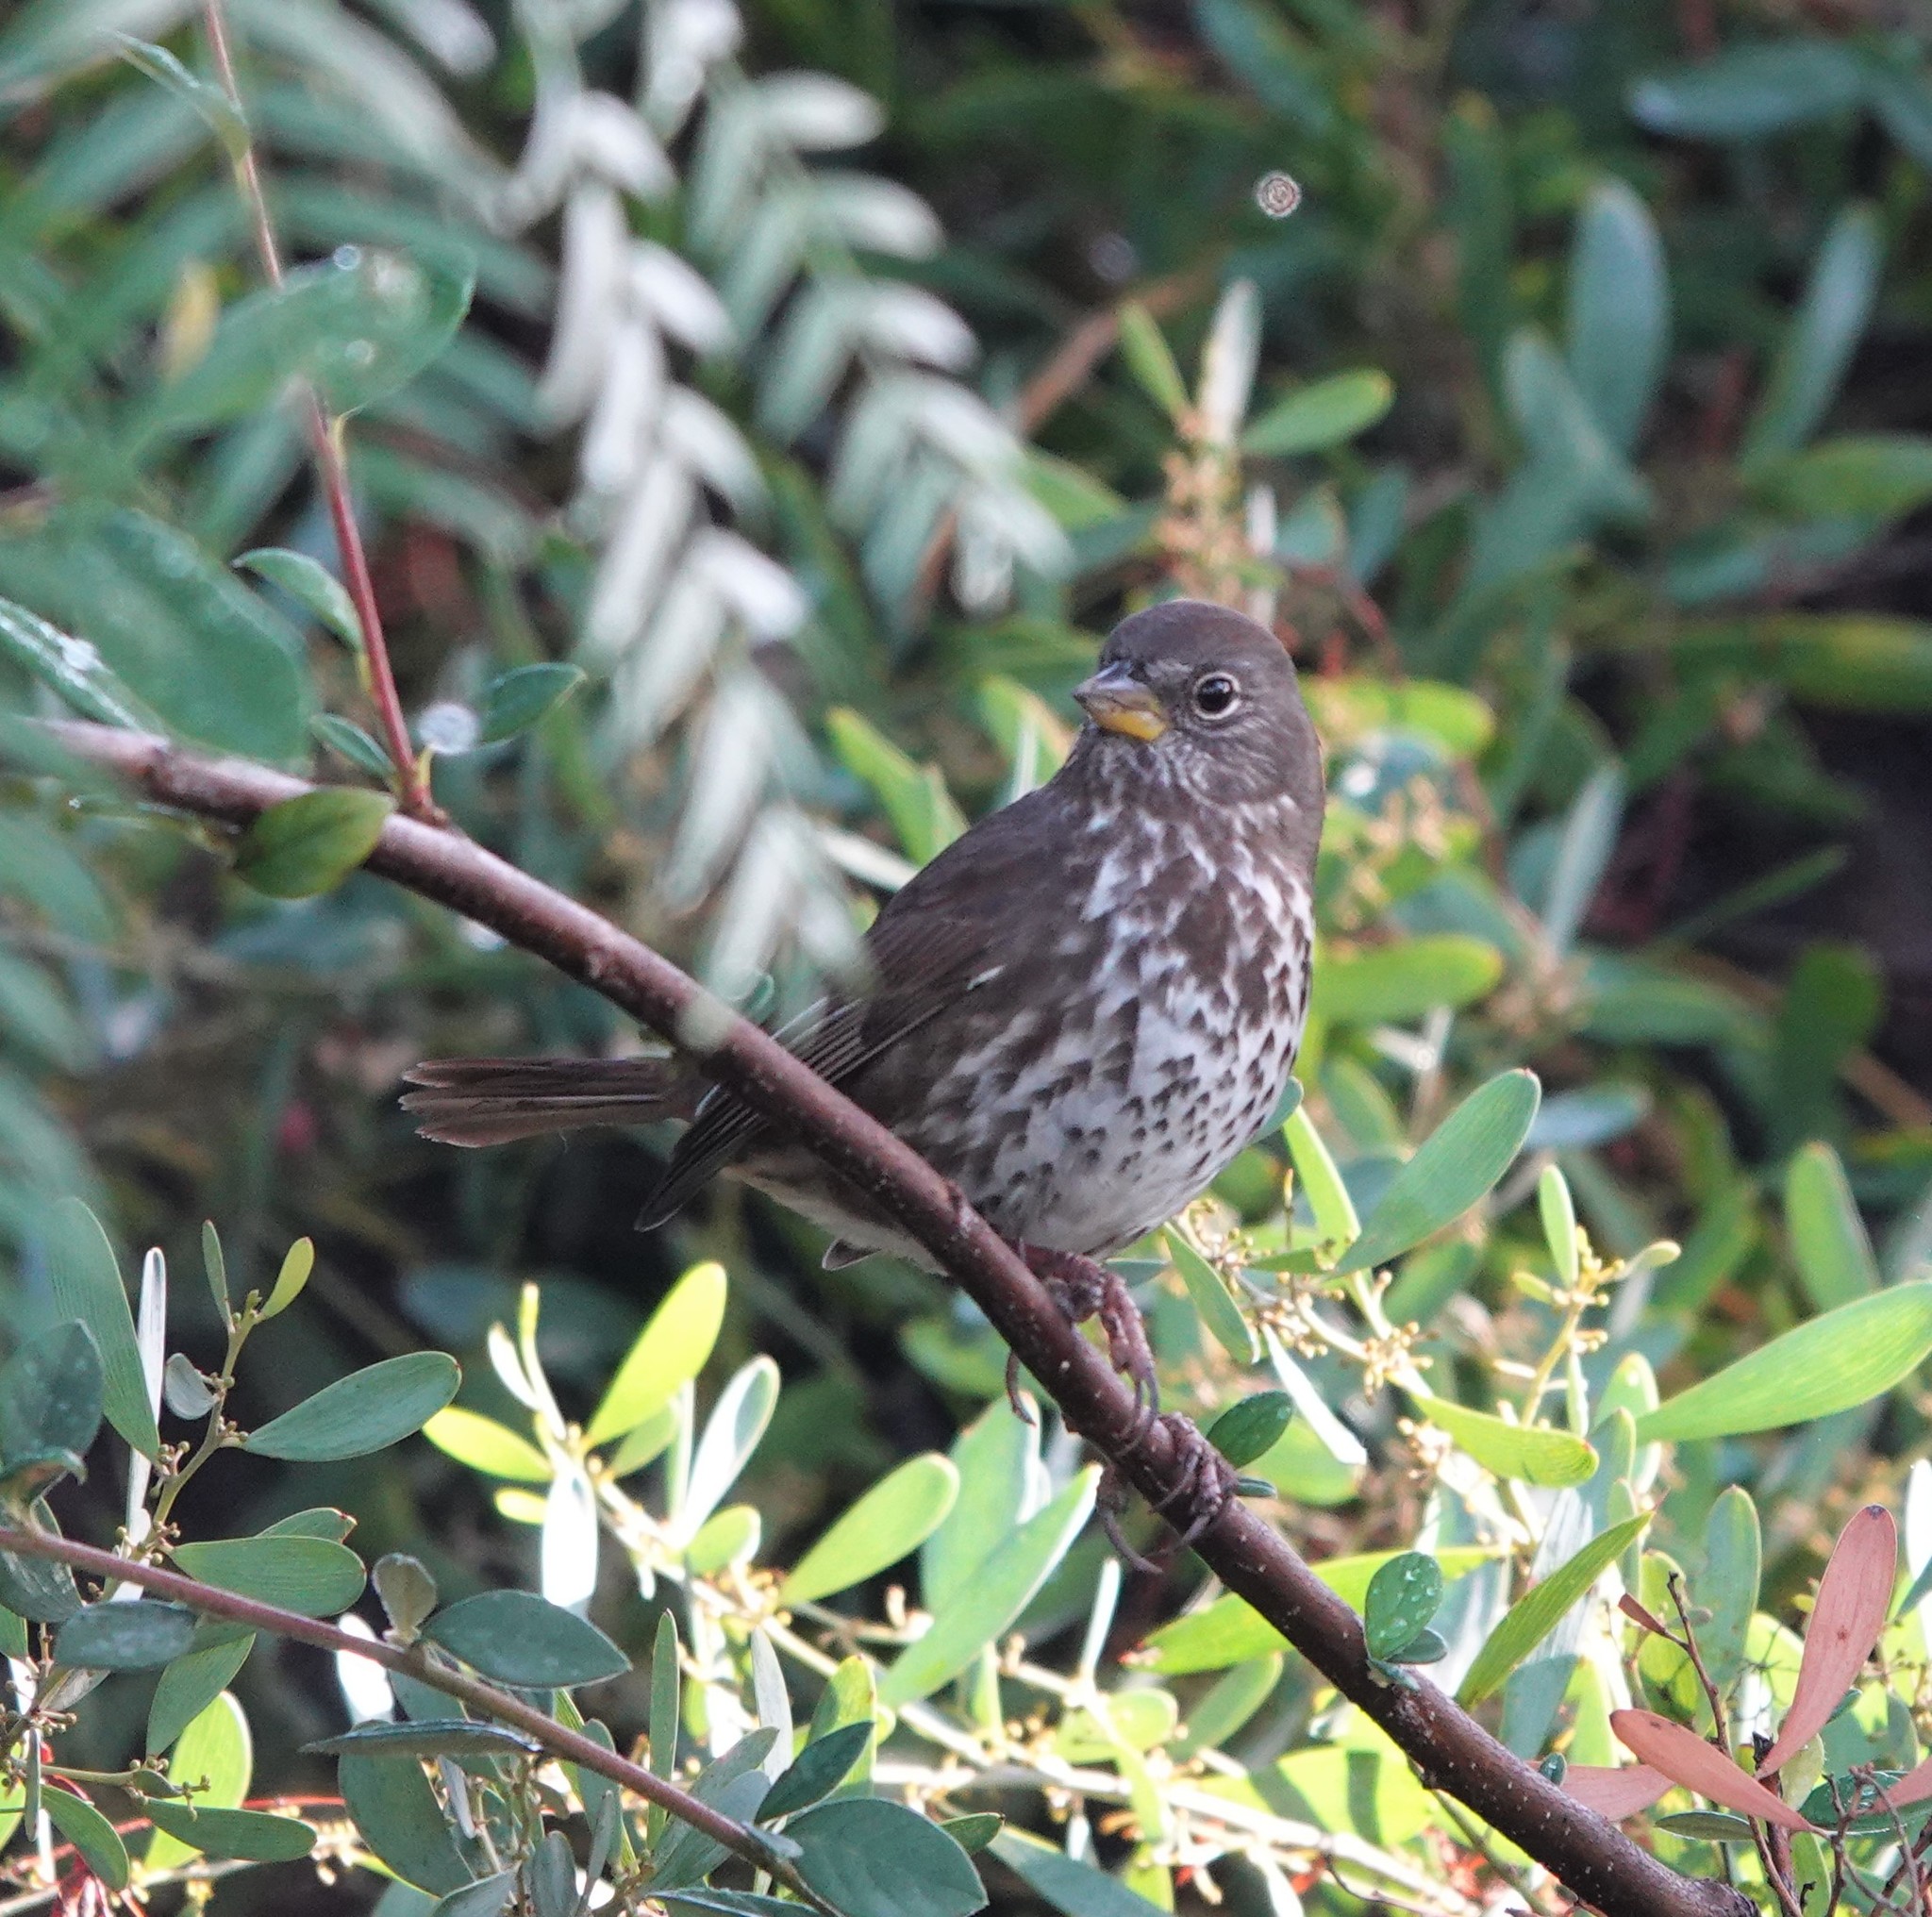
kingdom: Animalia
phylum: Chordata
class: Aves
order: Passeriformes
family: Passerellidae
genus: Passerella
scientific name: Passerella iliaca
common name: Fox sparrow
